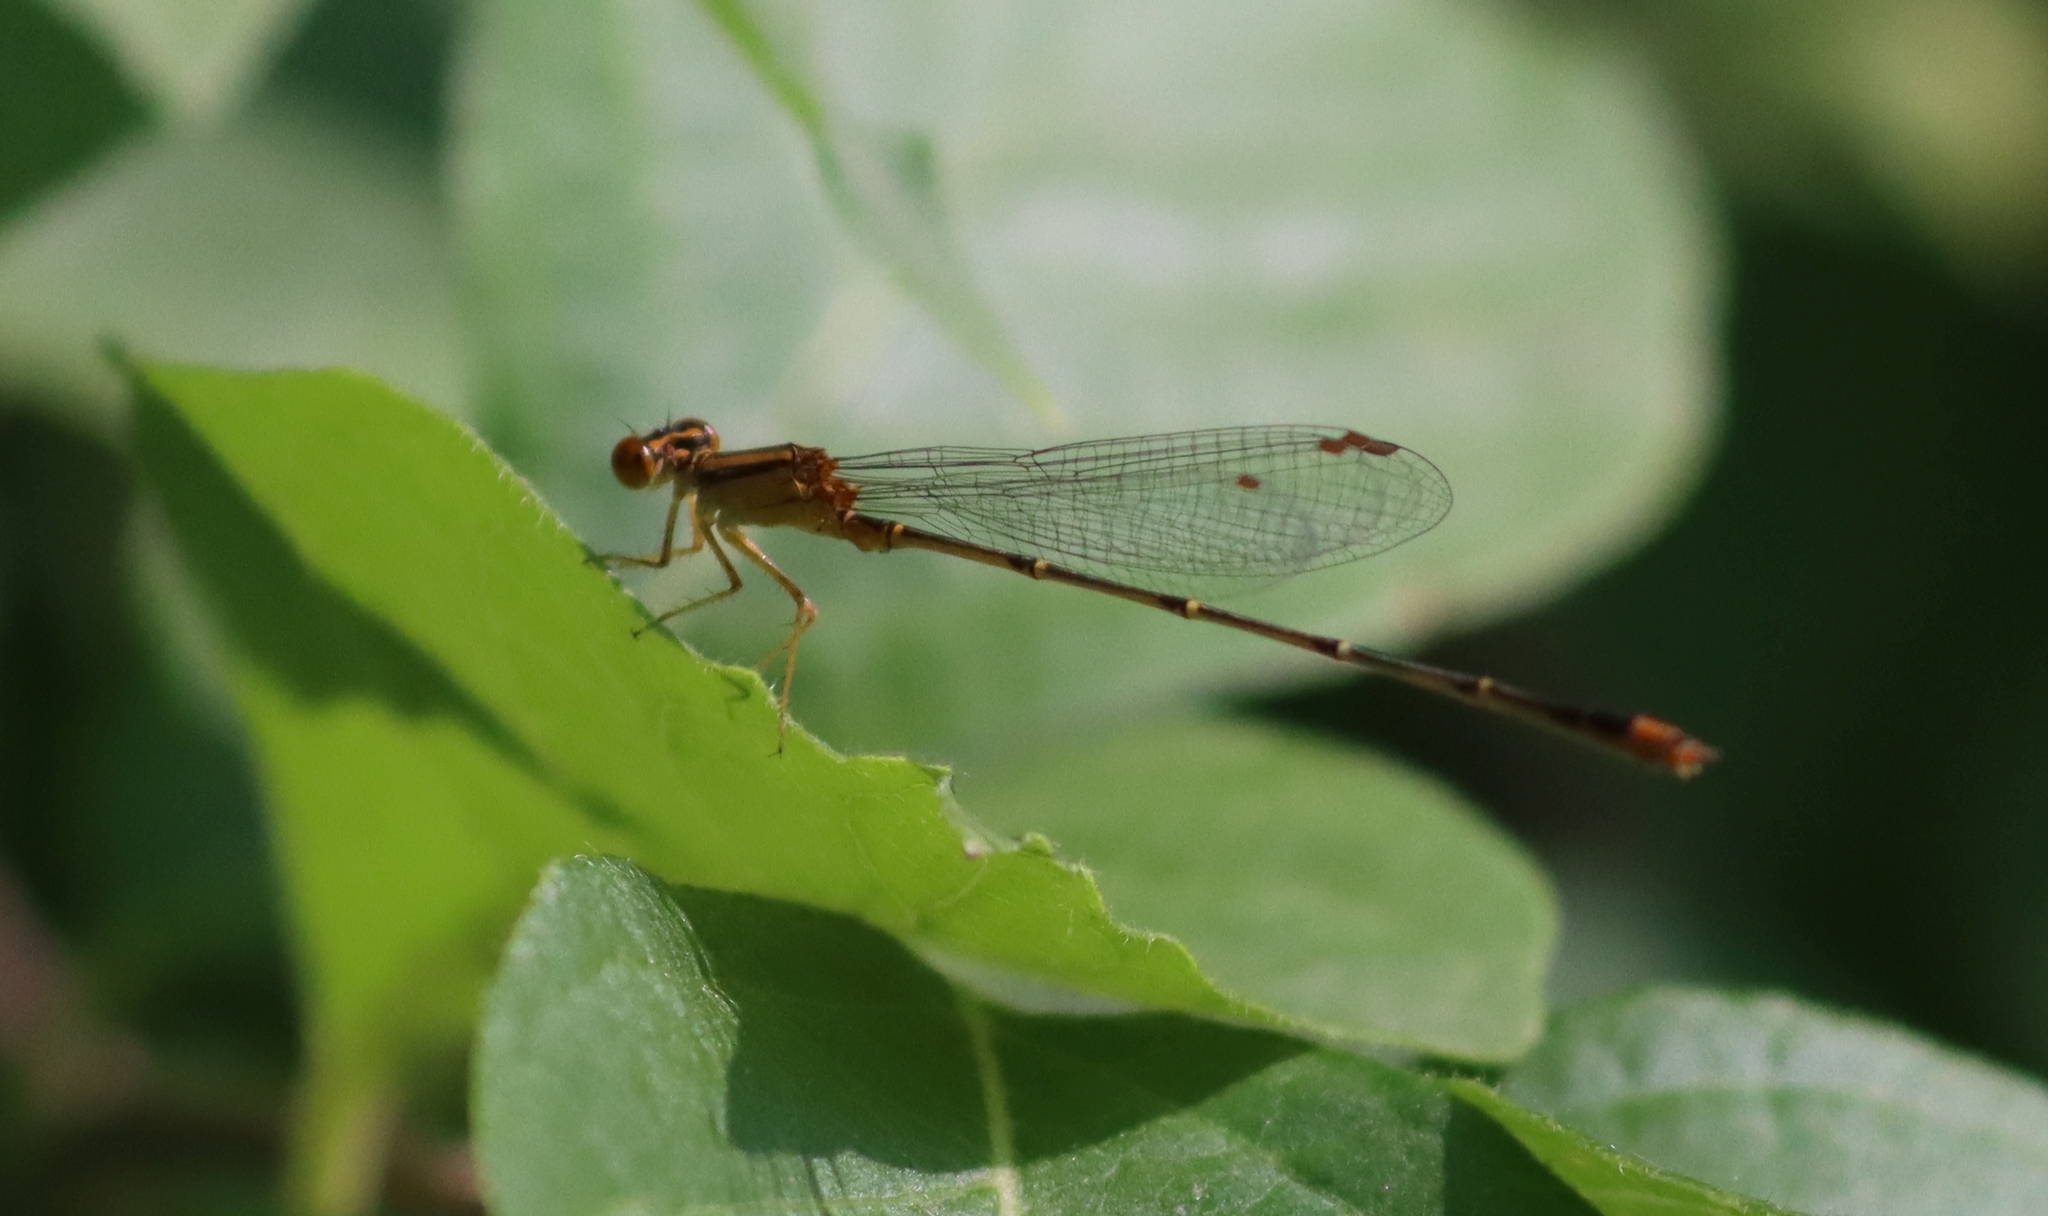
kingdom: Animalia
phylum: Arthropoda
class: Insecta
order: Odonata
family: Coenagrionidae
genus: Enallagma
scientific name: Enallagma signatum
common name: Orange bluet
